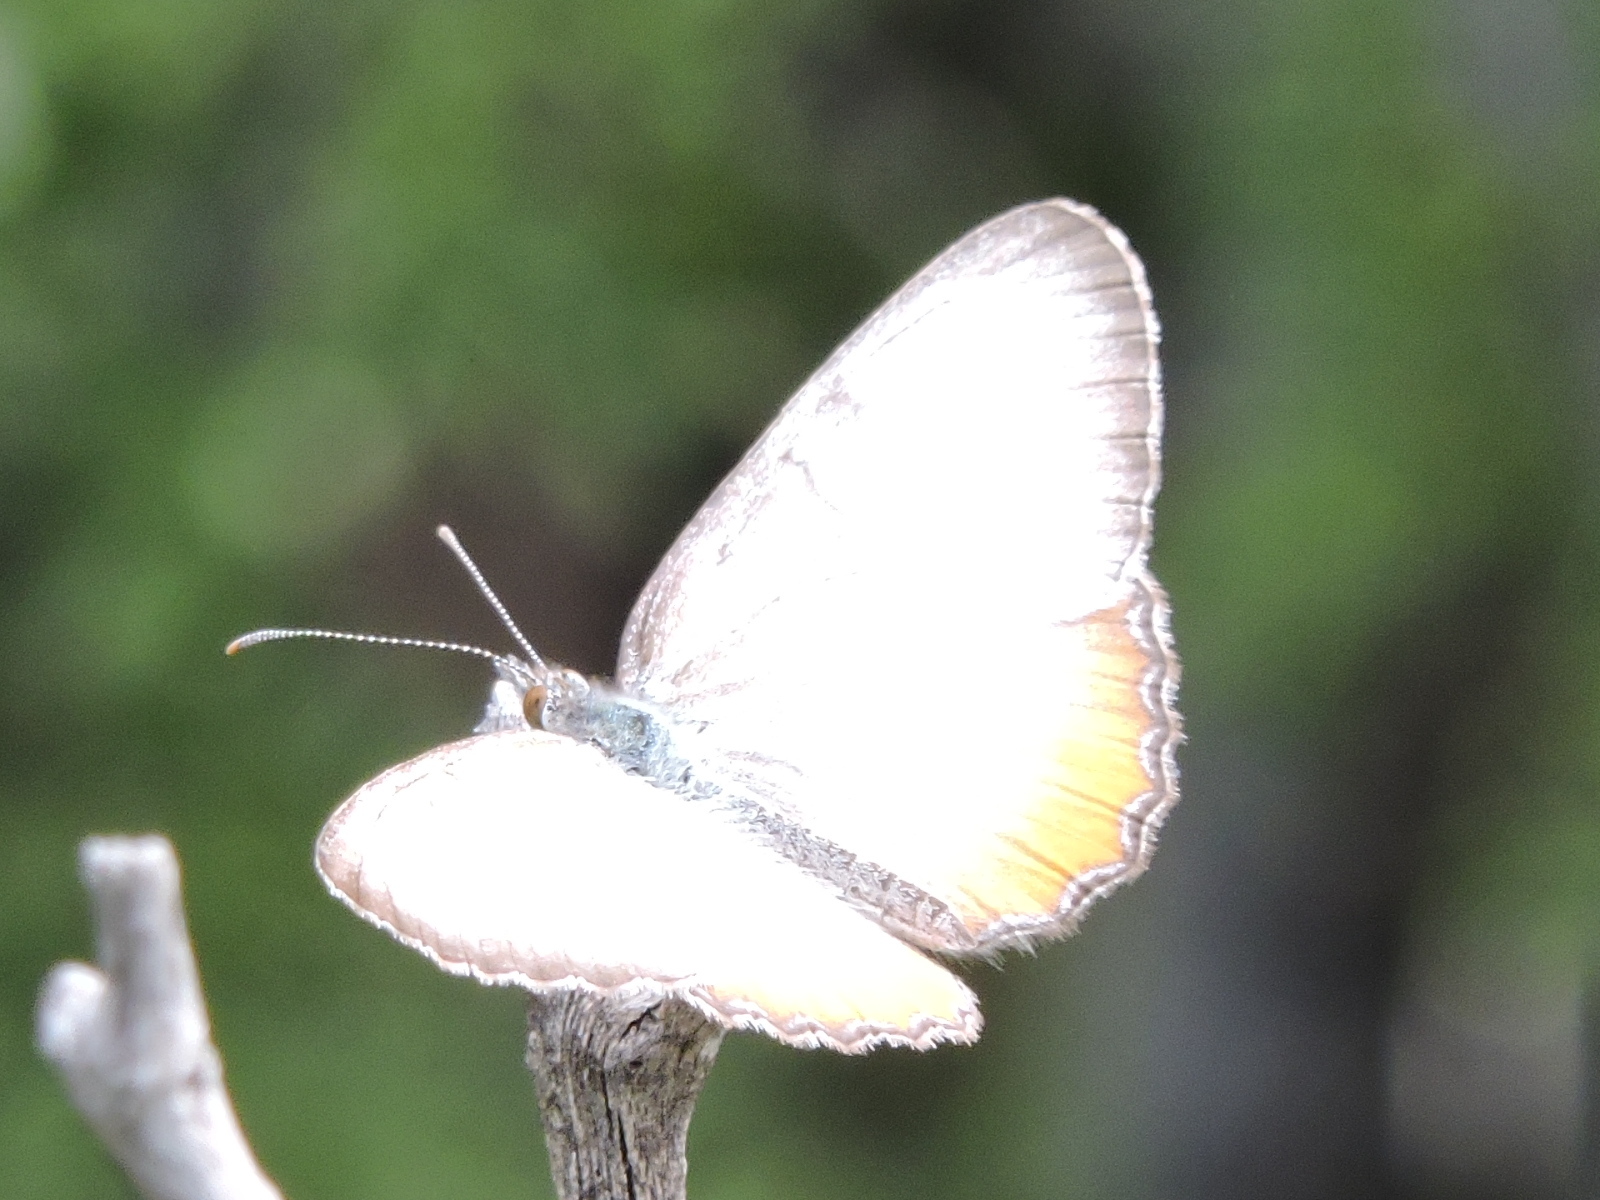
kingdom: Animalia
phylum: Arthropoda
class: Insecta
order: Lepidoptera
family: Nymphalidae
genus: Mestra
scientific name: Mestra amymone
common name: Common mestra
